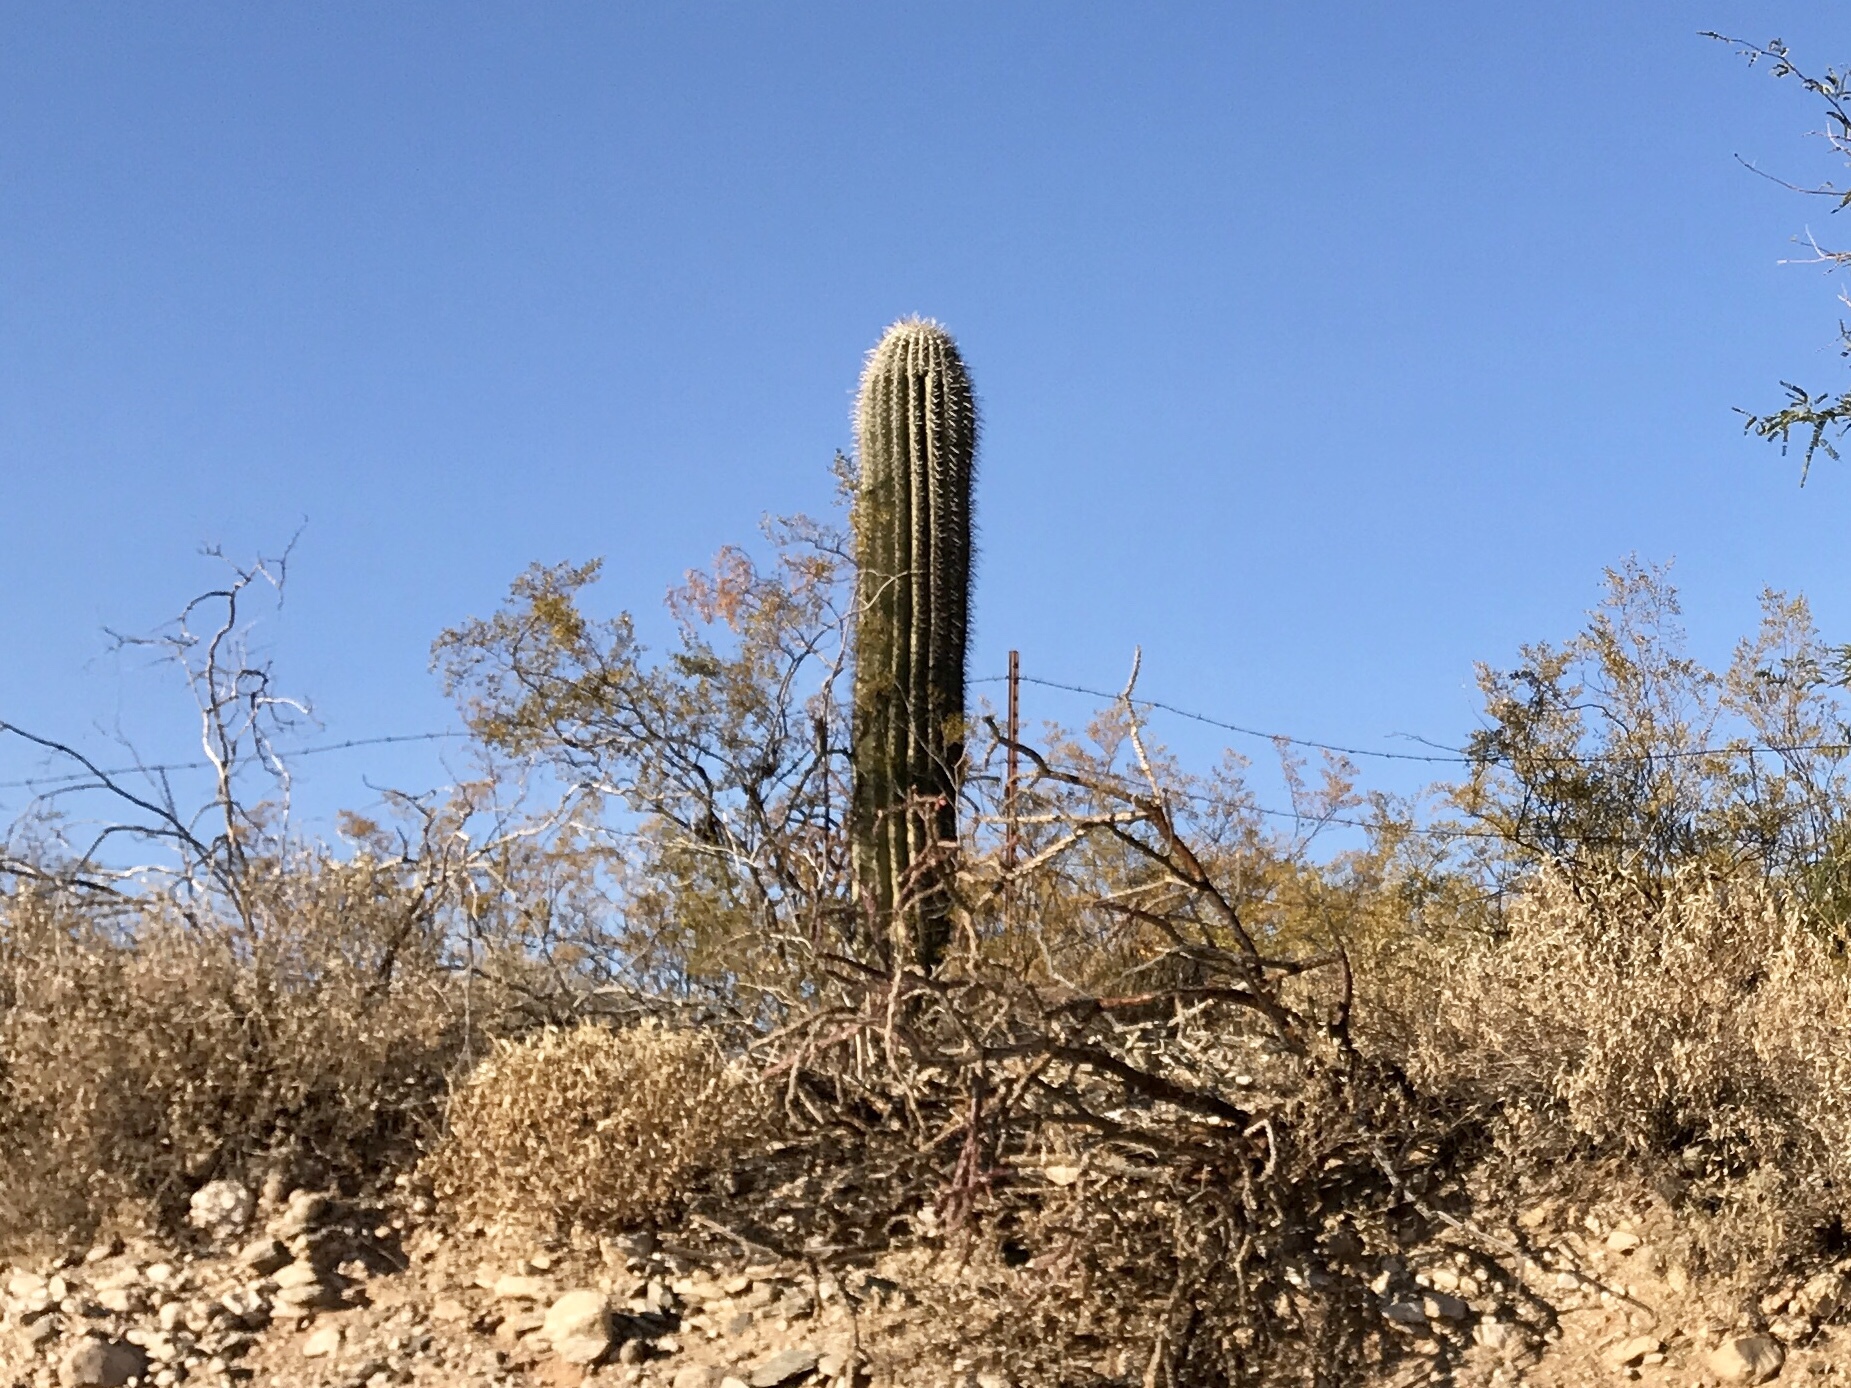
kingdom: Plantae
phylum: Tracheophyta
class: Magnoliopsida
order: Caryophyllales
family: Cactaceae
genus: Carnegiea
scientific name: Carnegiea gigantea
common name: Saguaro
